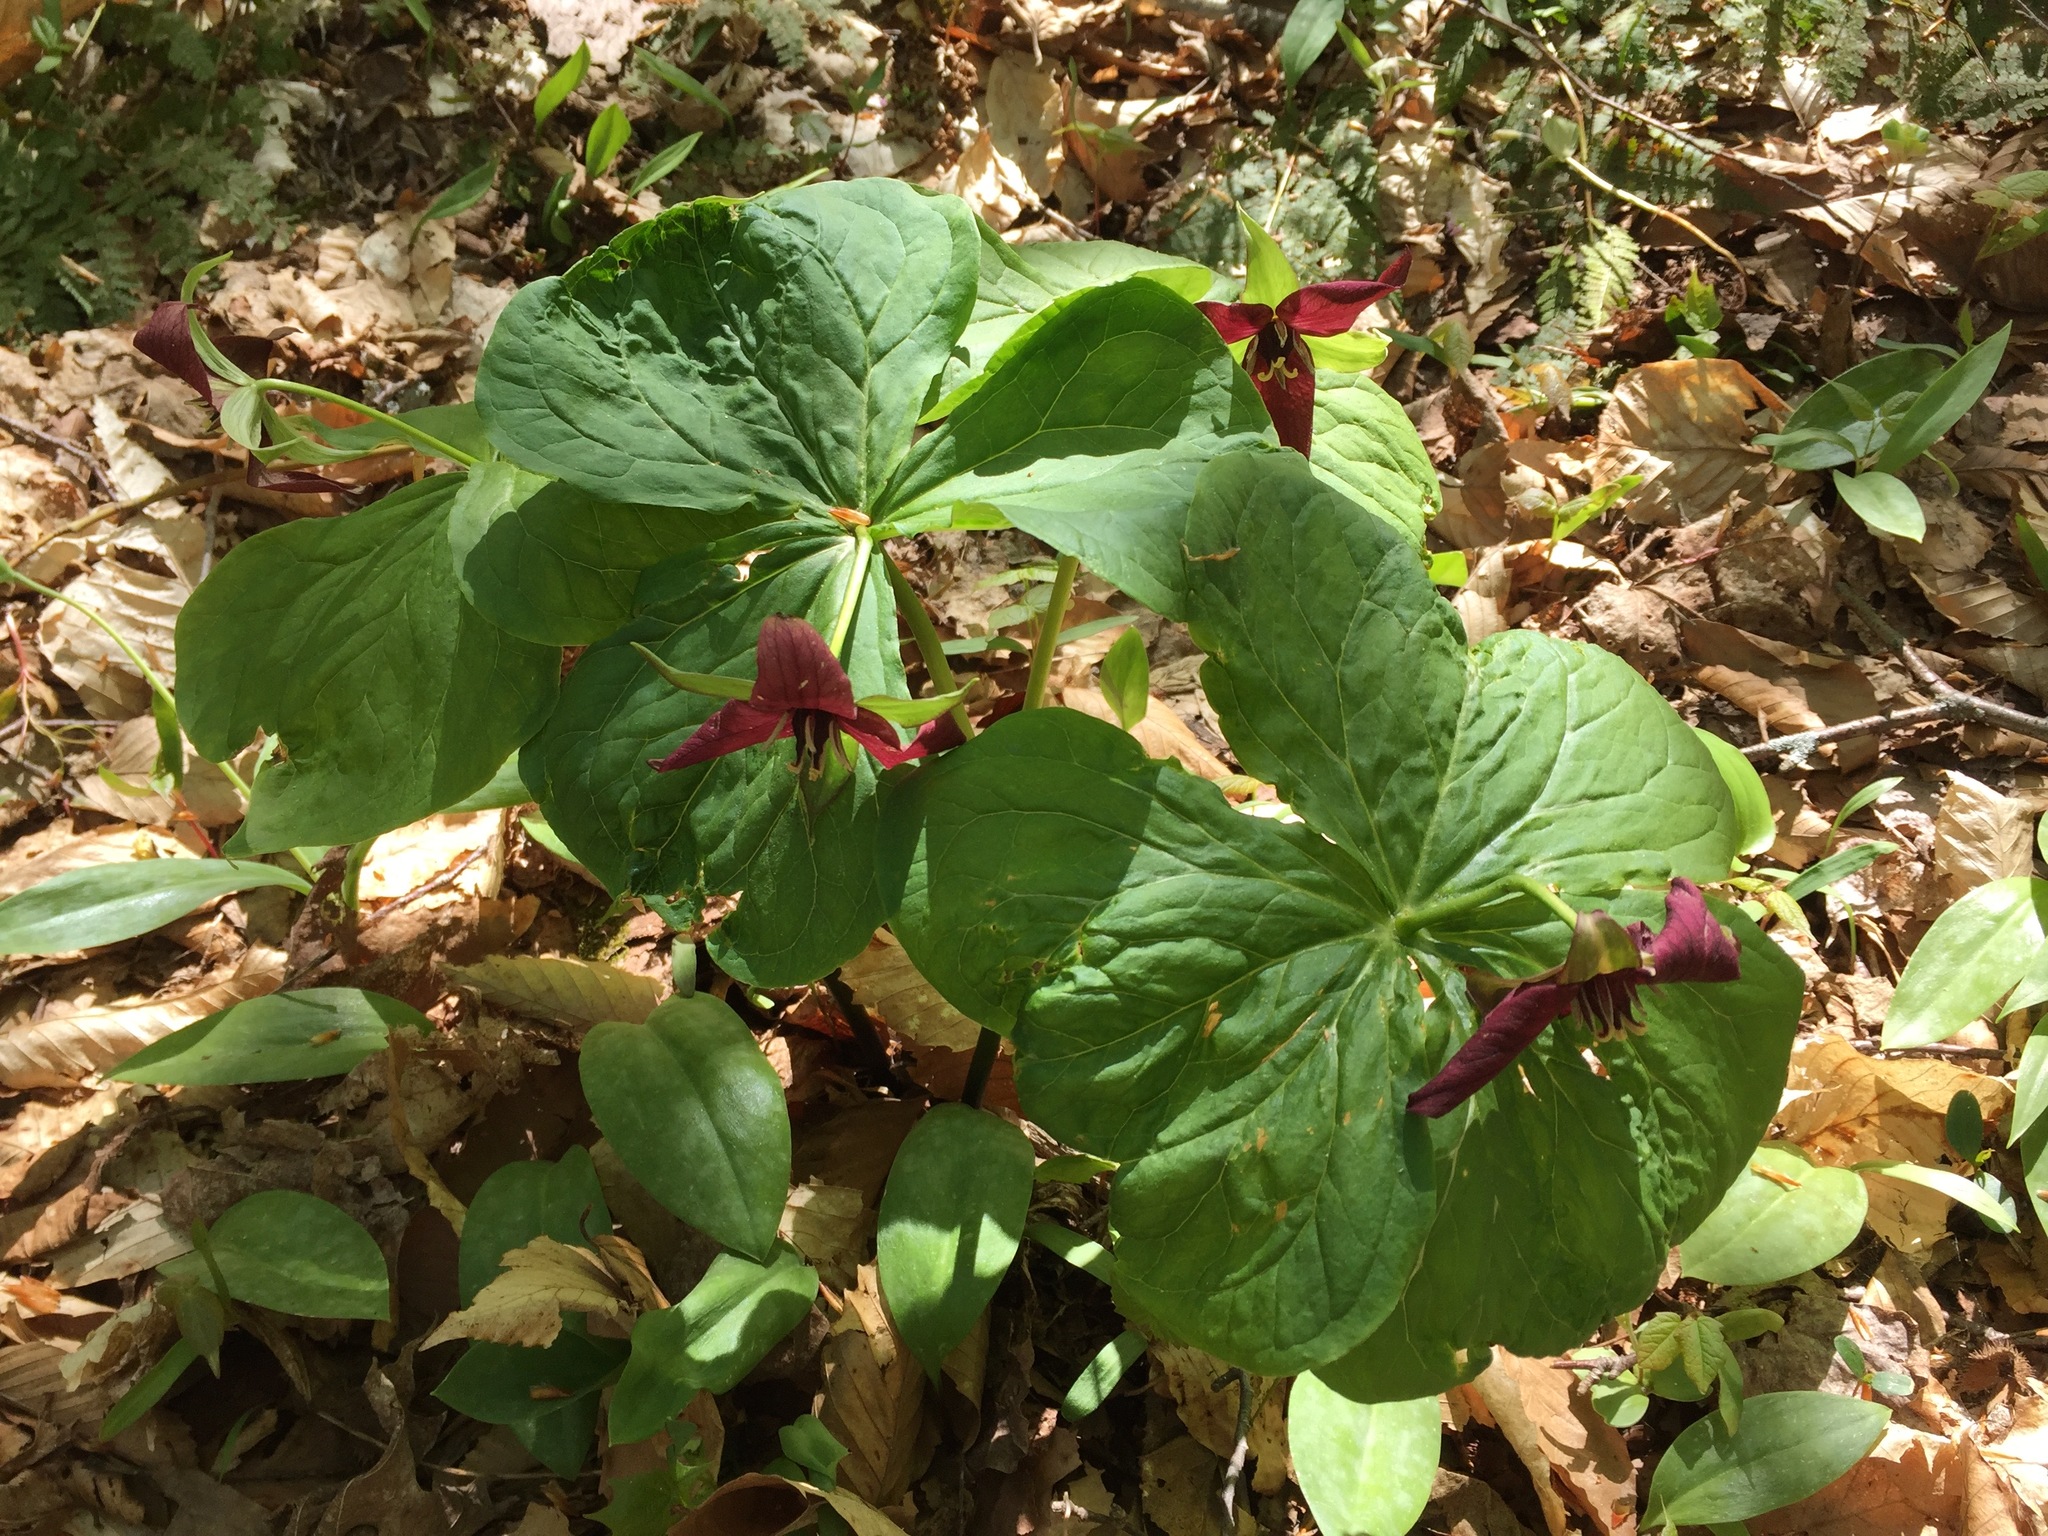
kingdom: Plantae
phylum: Tracheophyta
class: Liliopsida
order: Liliales
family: Melanthiaceae
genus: Trillium
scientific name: Trillium erectum
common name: Purple trillium
